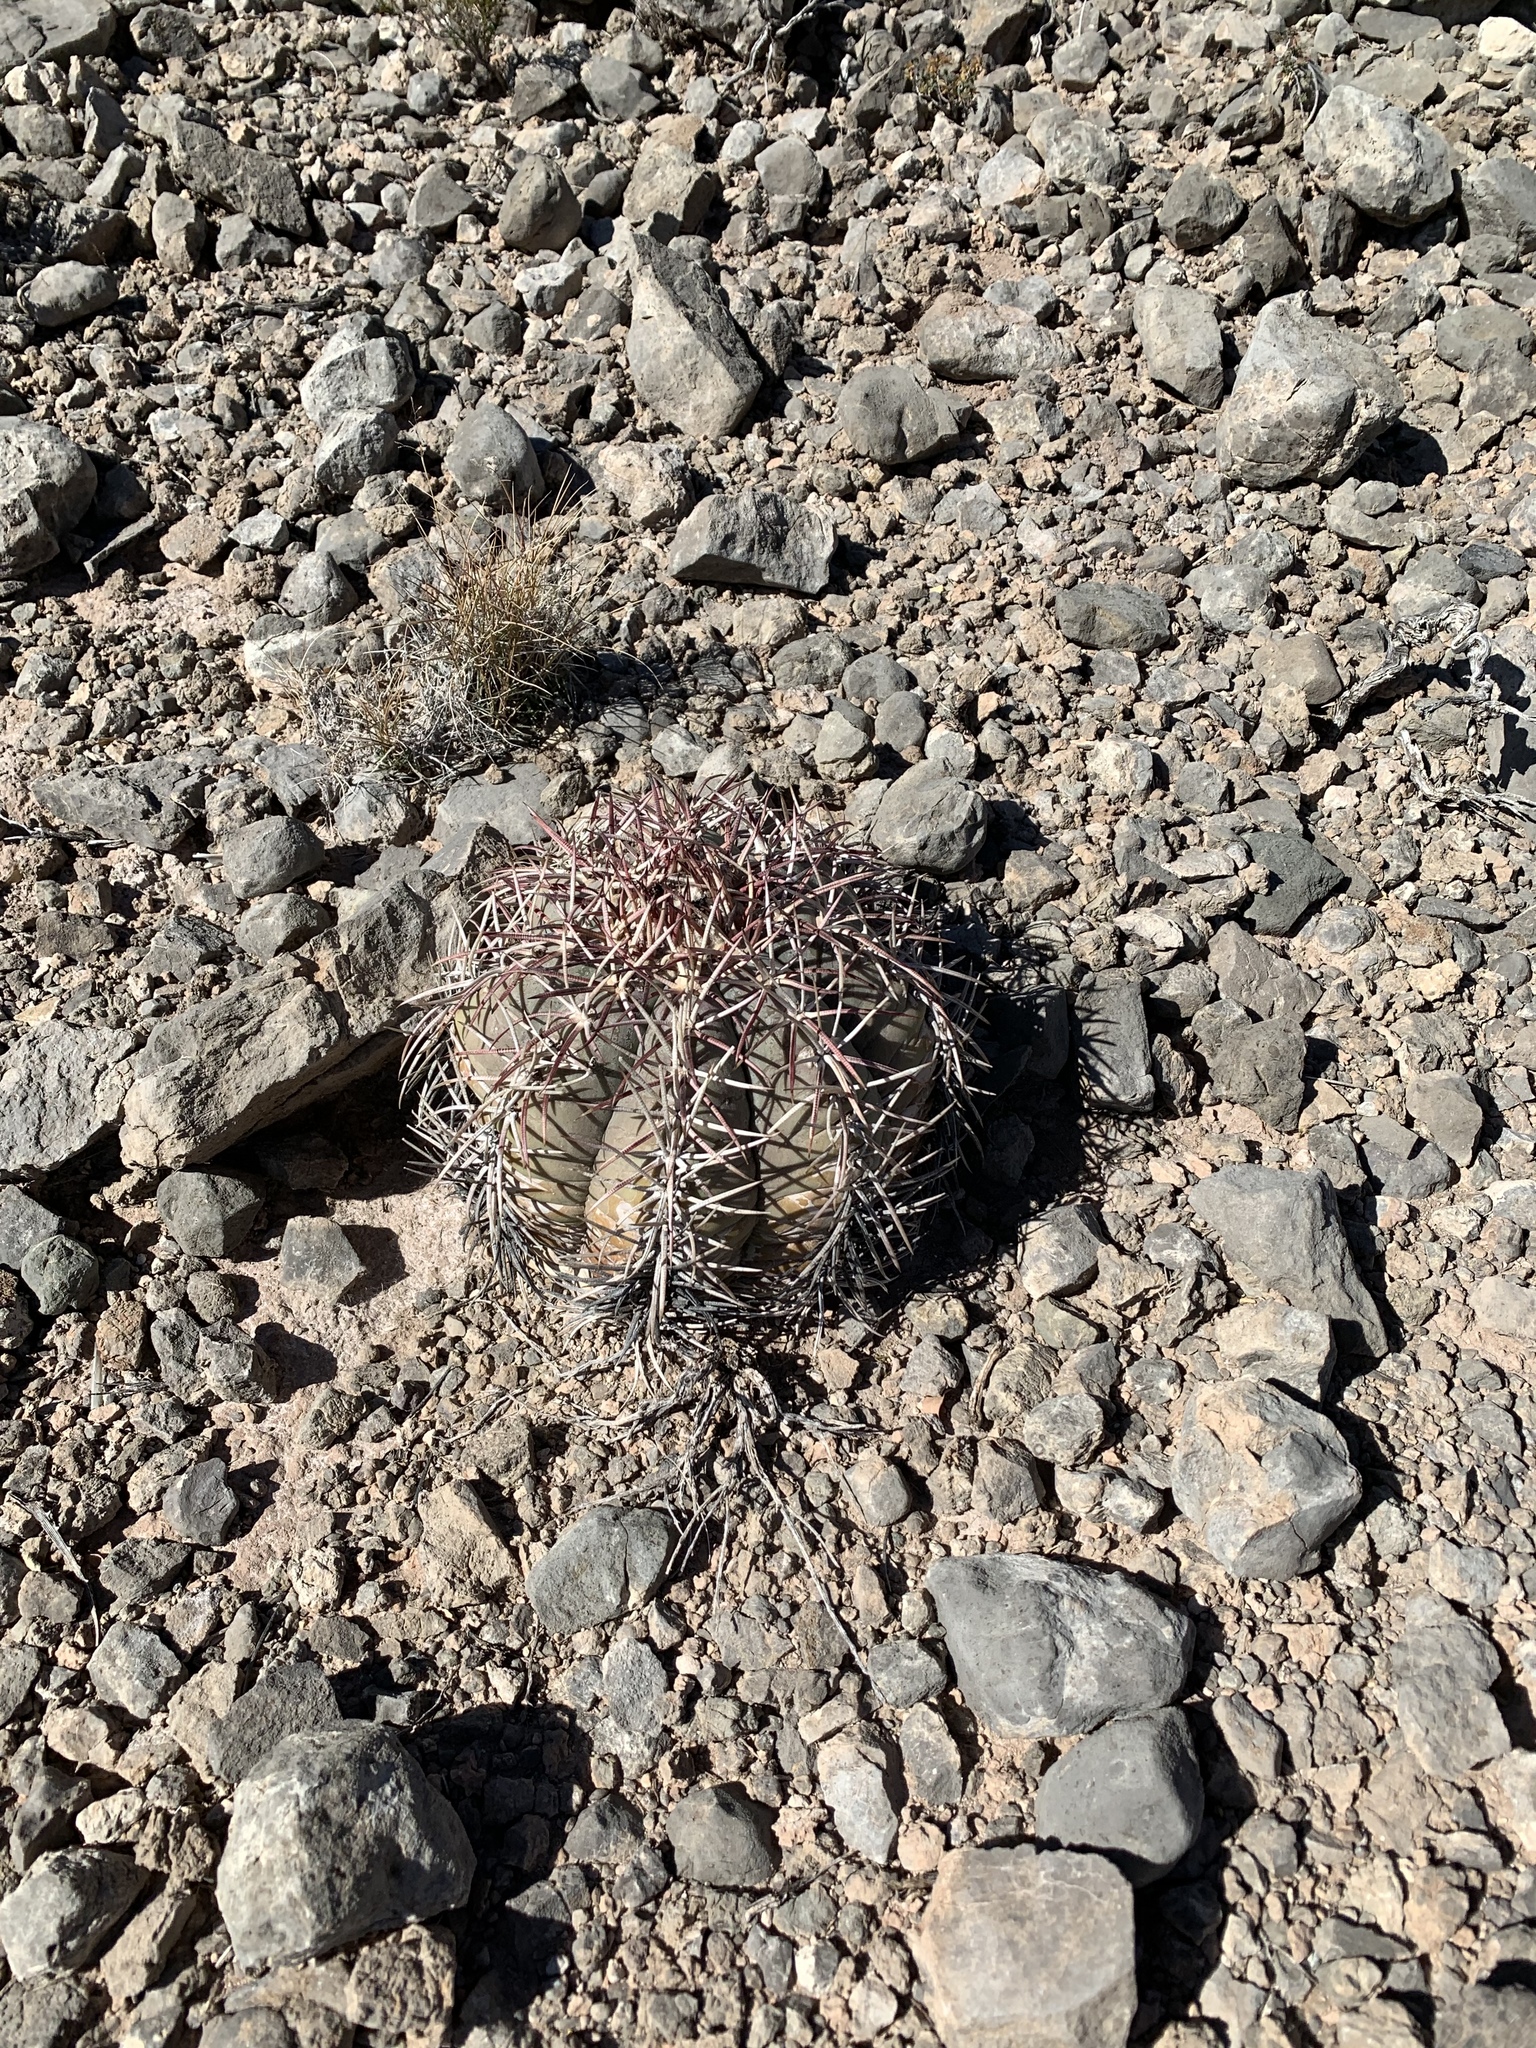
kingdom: Plantae
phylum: Tracheophyta
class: Magnoliopsida
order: Caryophyllales
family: Cactaceae
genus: Echinocactus
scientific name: Echinocactus horizonthalonius
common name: Devilshead
